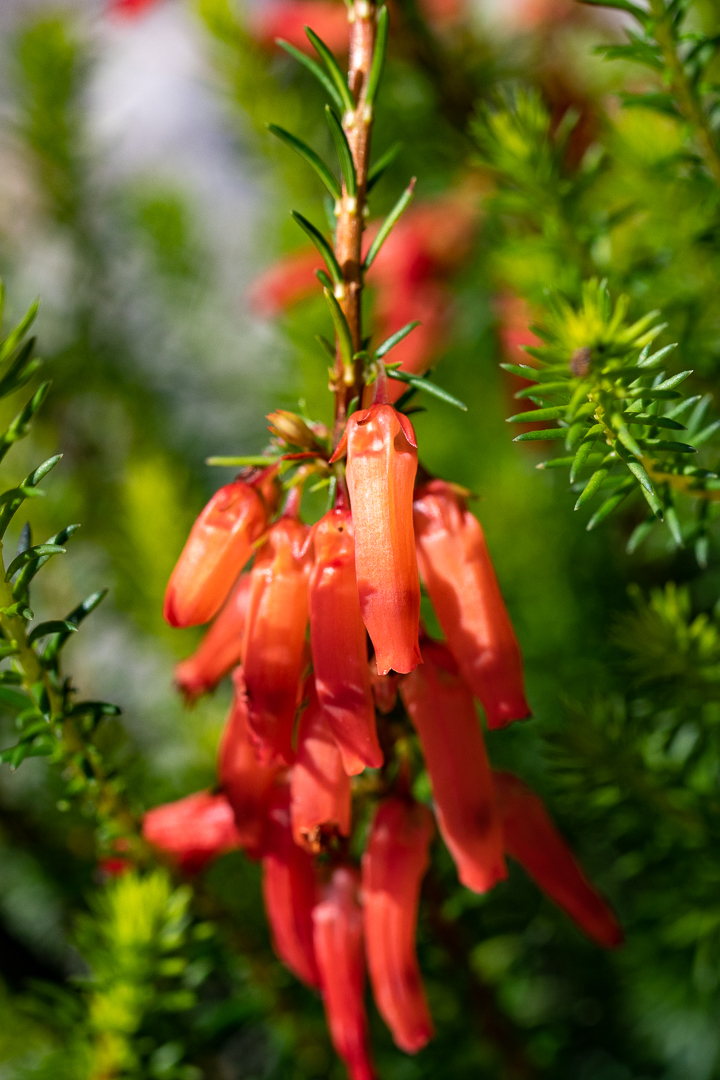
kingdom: Plantae
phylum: Tracheophyta
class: Magnoliopsida
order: Ericales
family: Ericaceae
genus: Erica
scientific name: Erica mammosa
